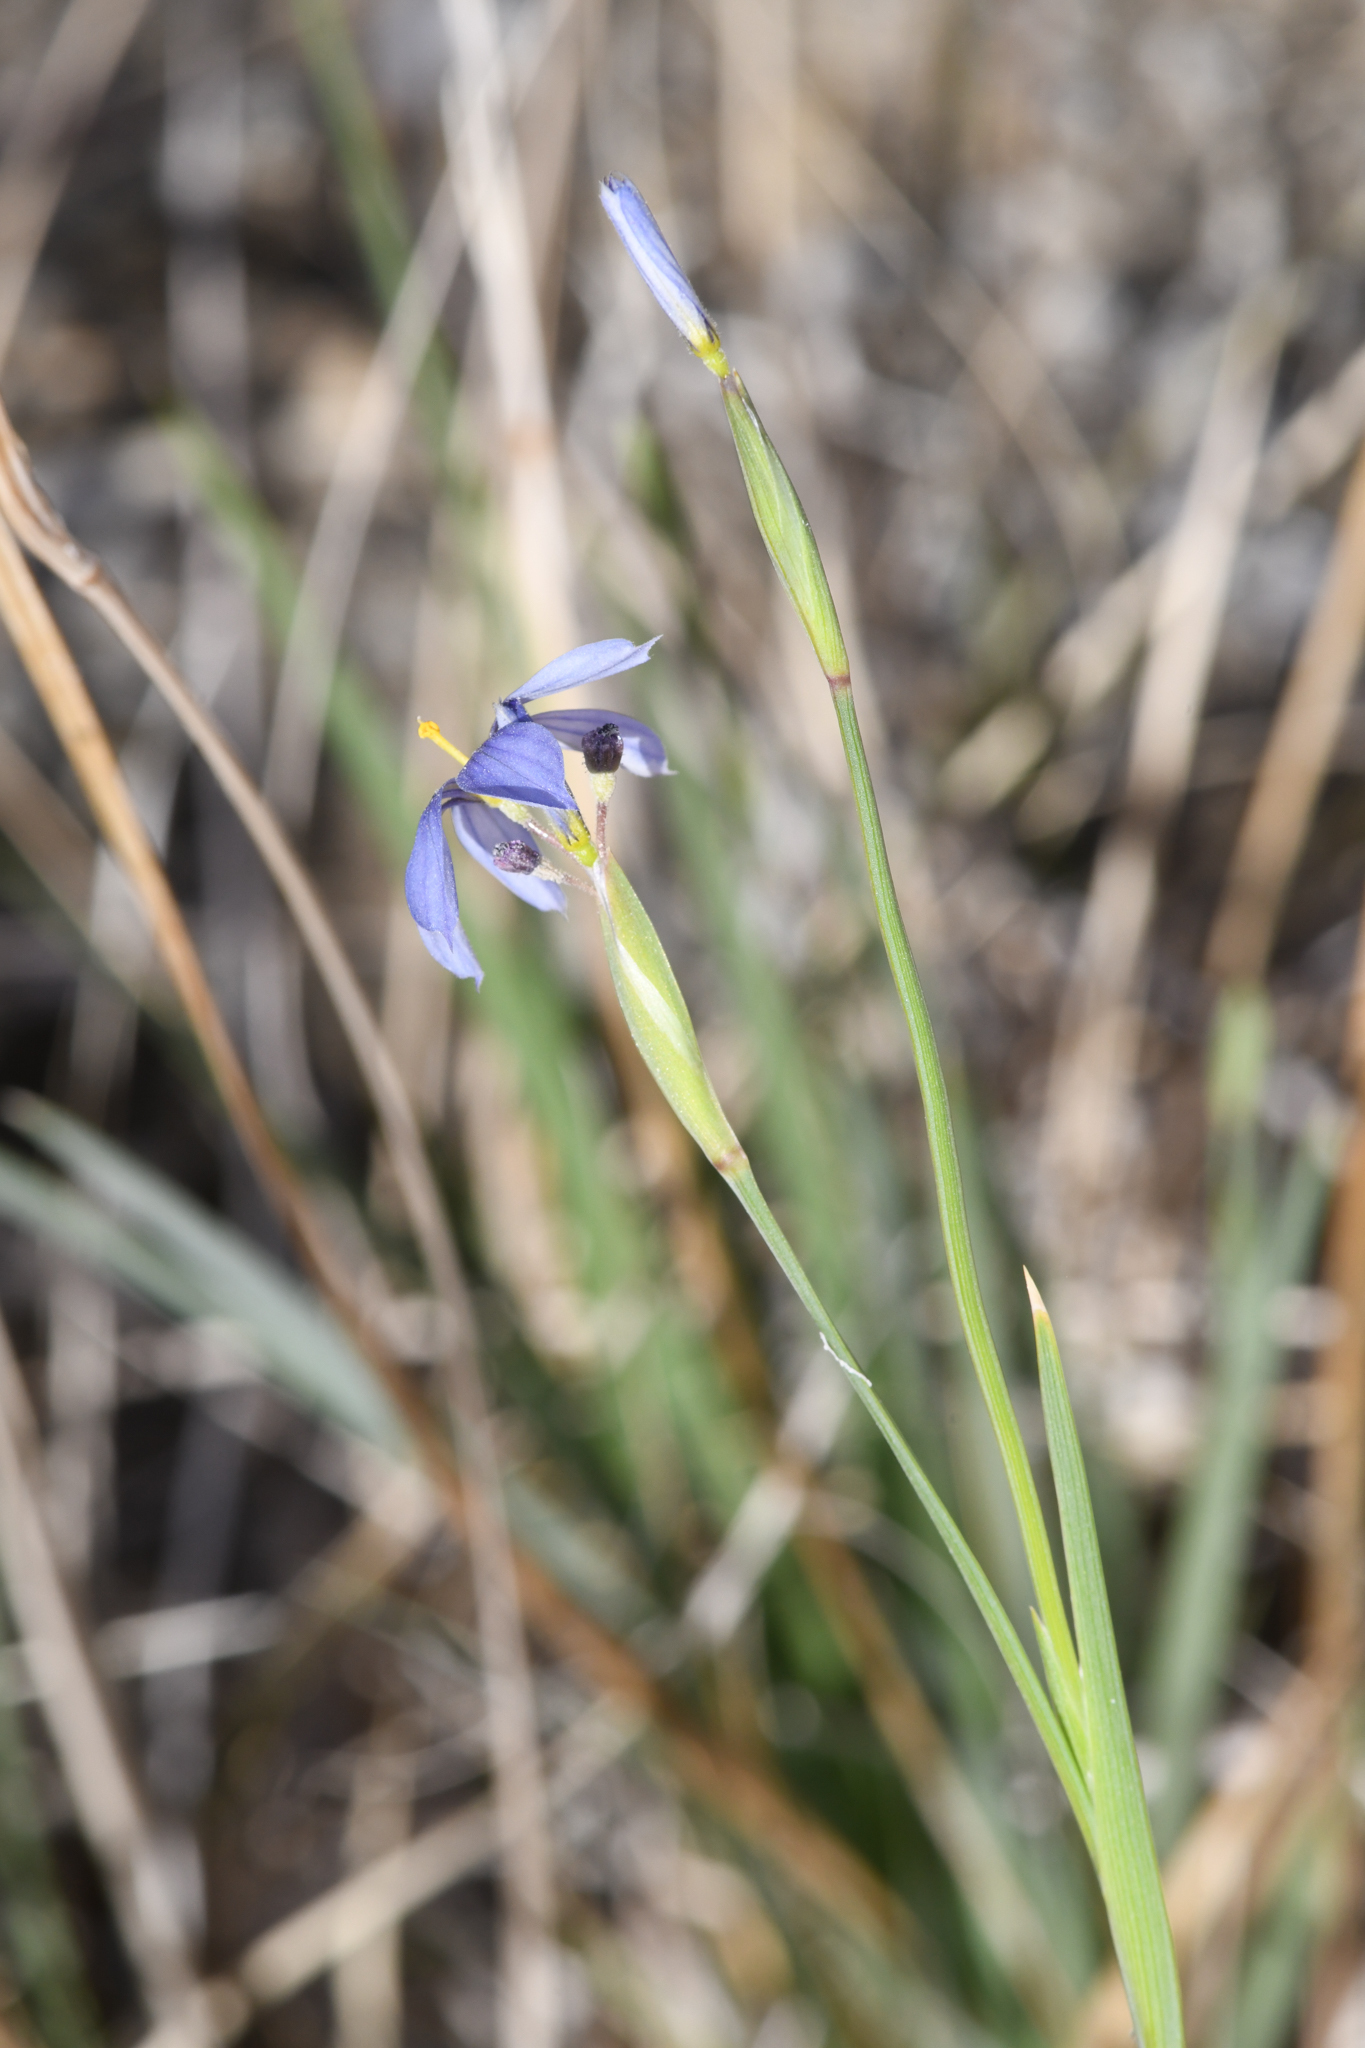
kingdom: Plantae
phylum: Tracheophyta
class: Liliopsida
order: Asparagales
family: Iridaceae
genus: Sisyrinchium
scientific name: Sisyrinchium funereum
